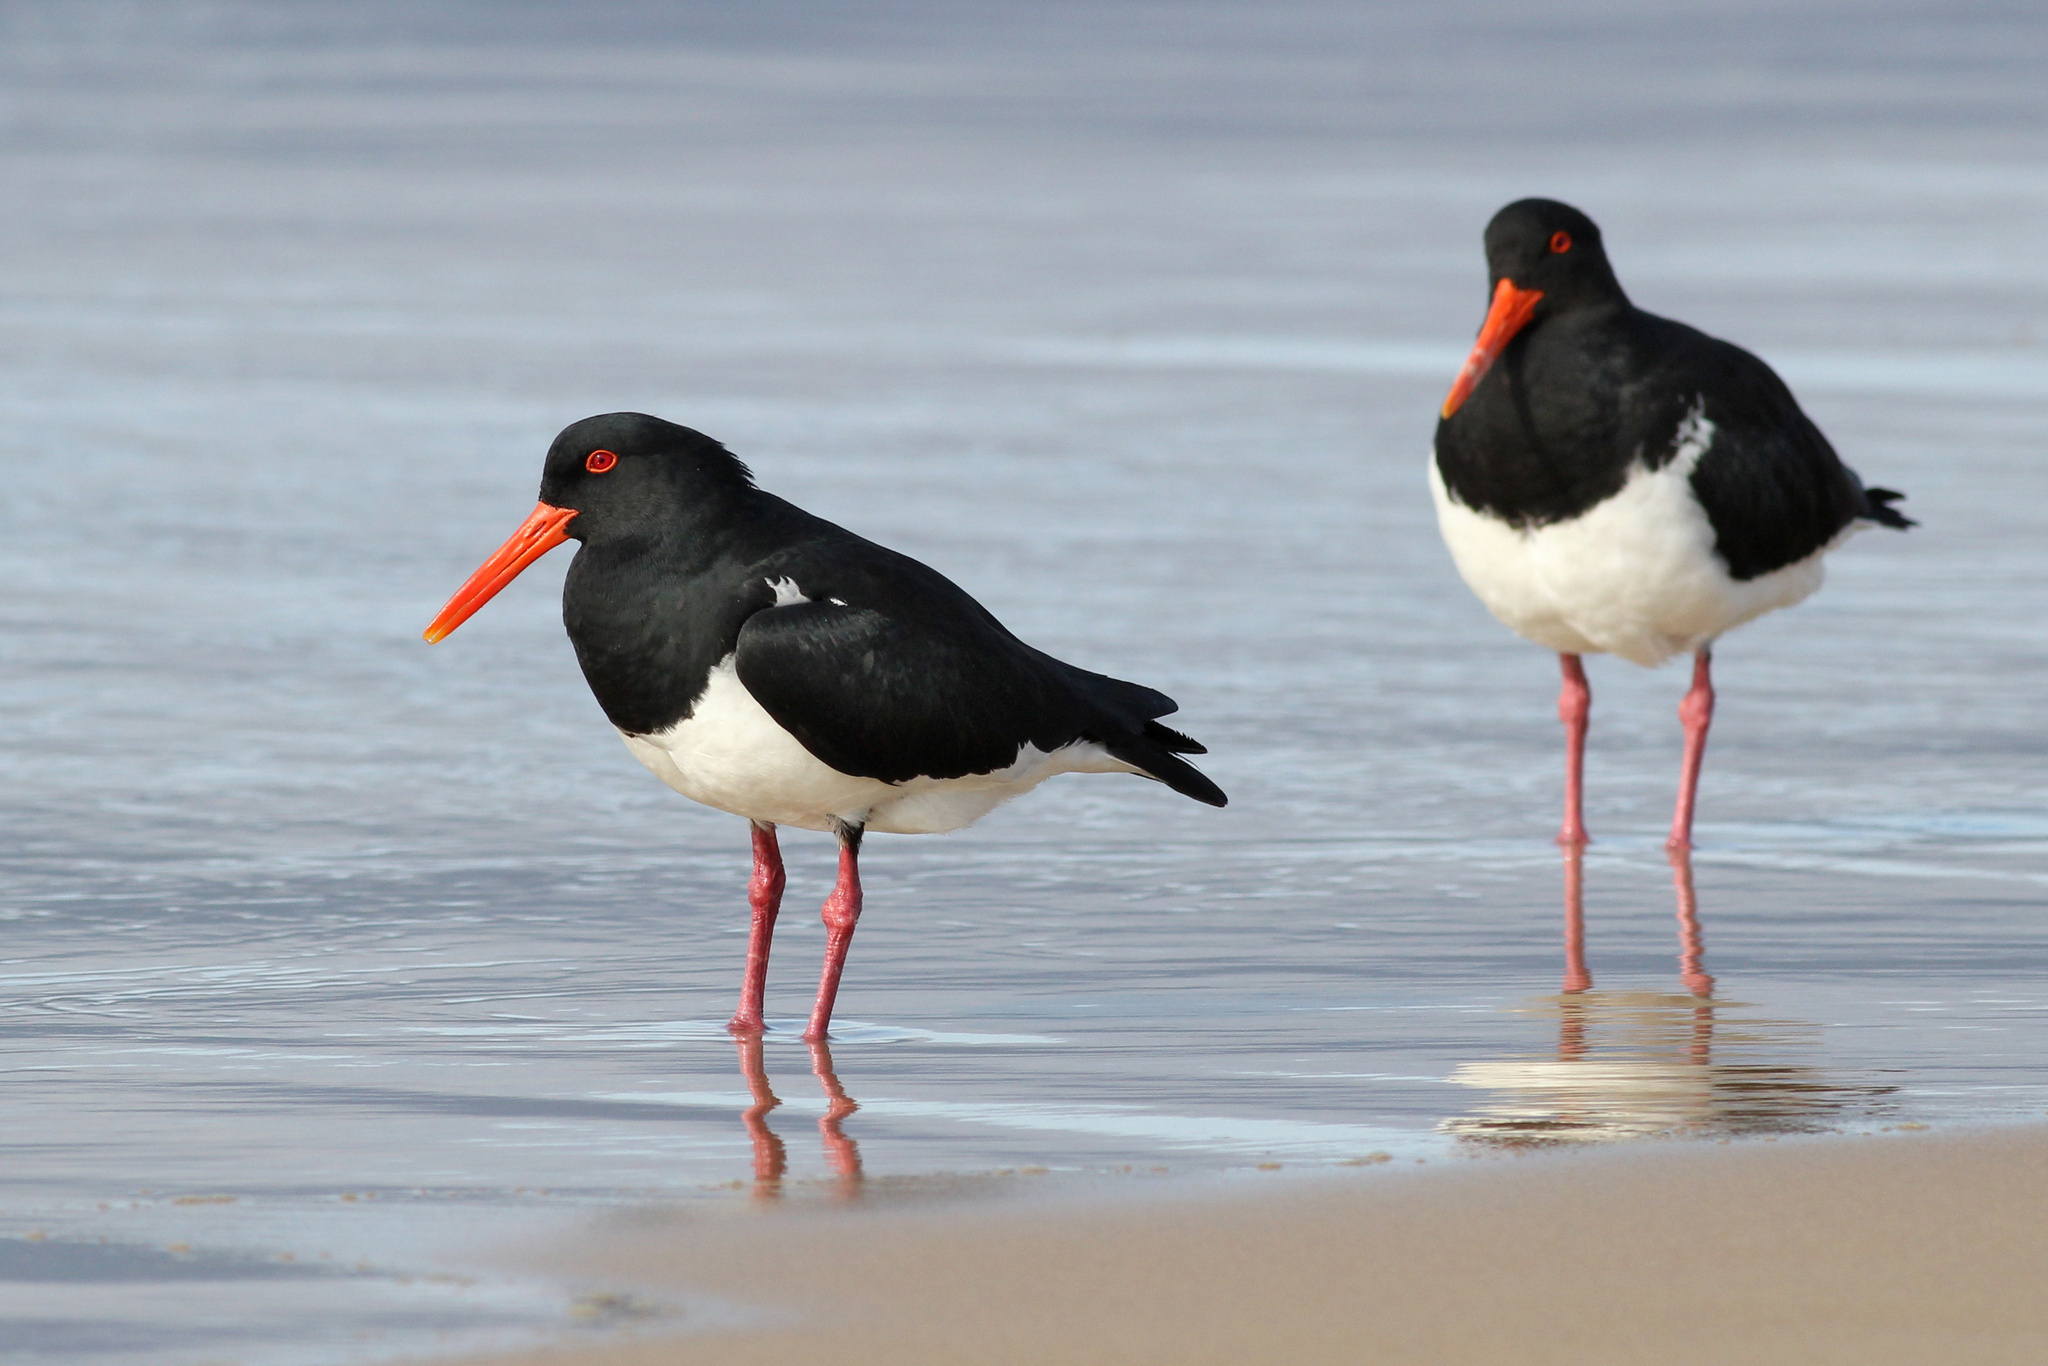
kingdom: Animalia
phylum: Chordata
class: Aves
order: Charadriiformes
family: Haematopodidae
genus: Haematopus
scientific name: Haematopus longirostris
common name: Pied oystercatcher
